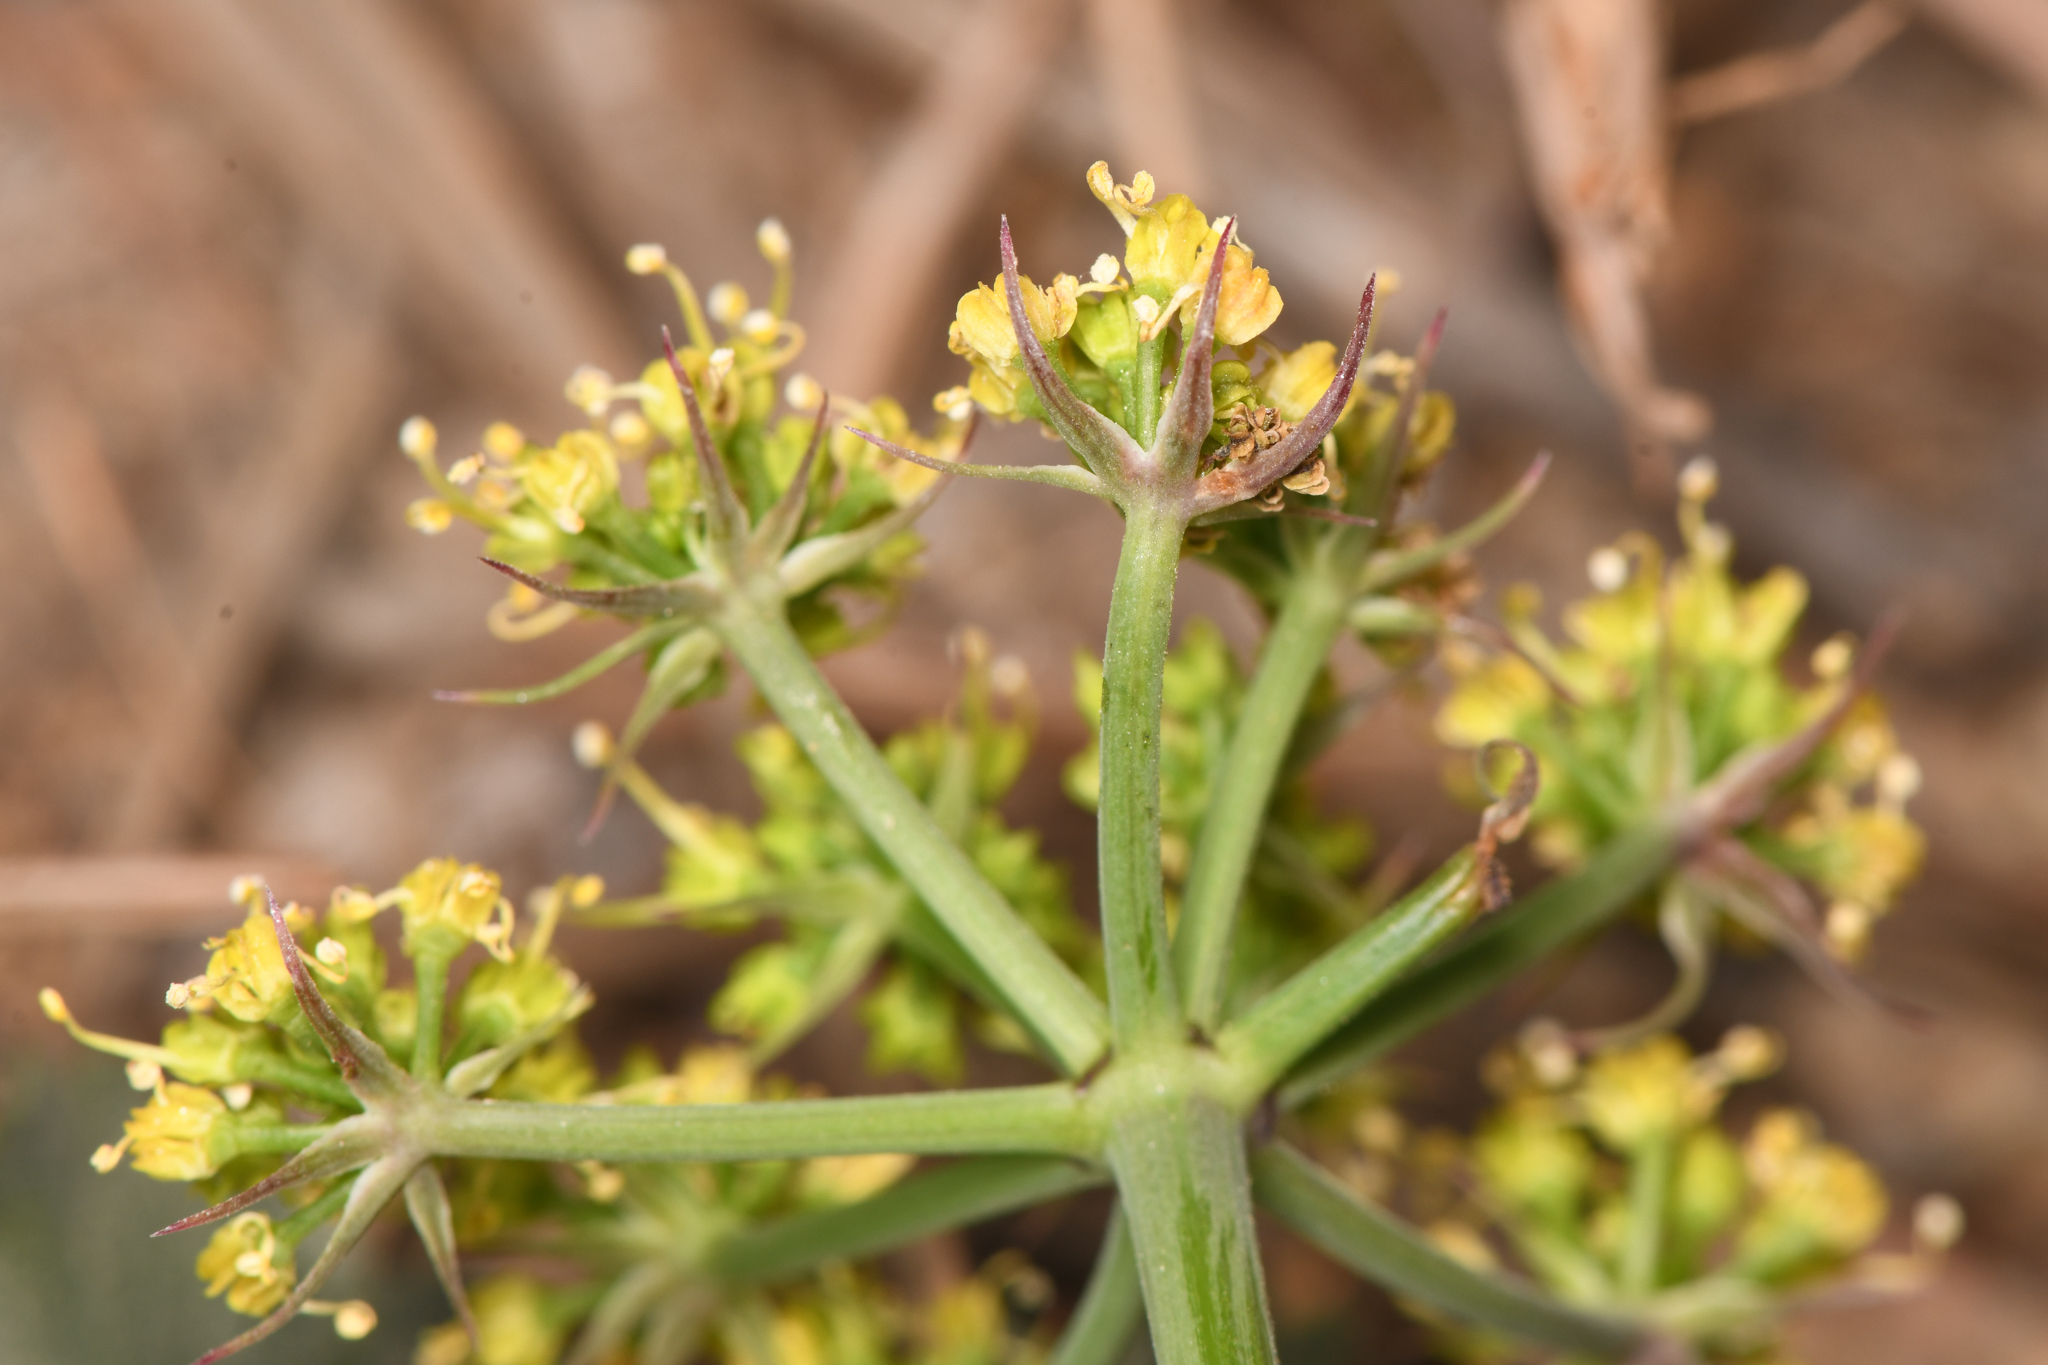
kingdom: Plantae
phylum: Tracheophyta
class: Magnoliopsida
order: Apiales
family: Apiaceae
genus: Lomatium
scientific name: Lomatium lucidum
